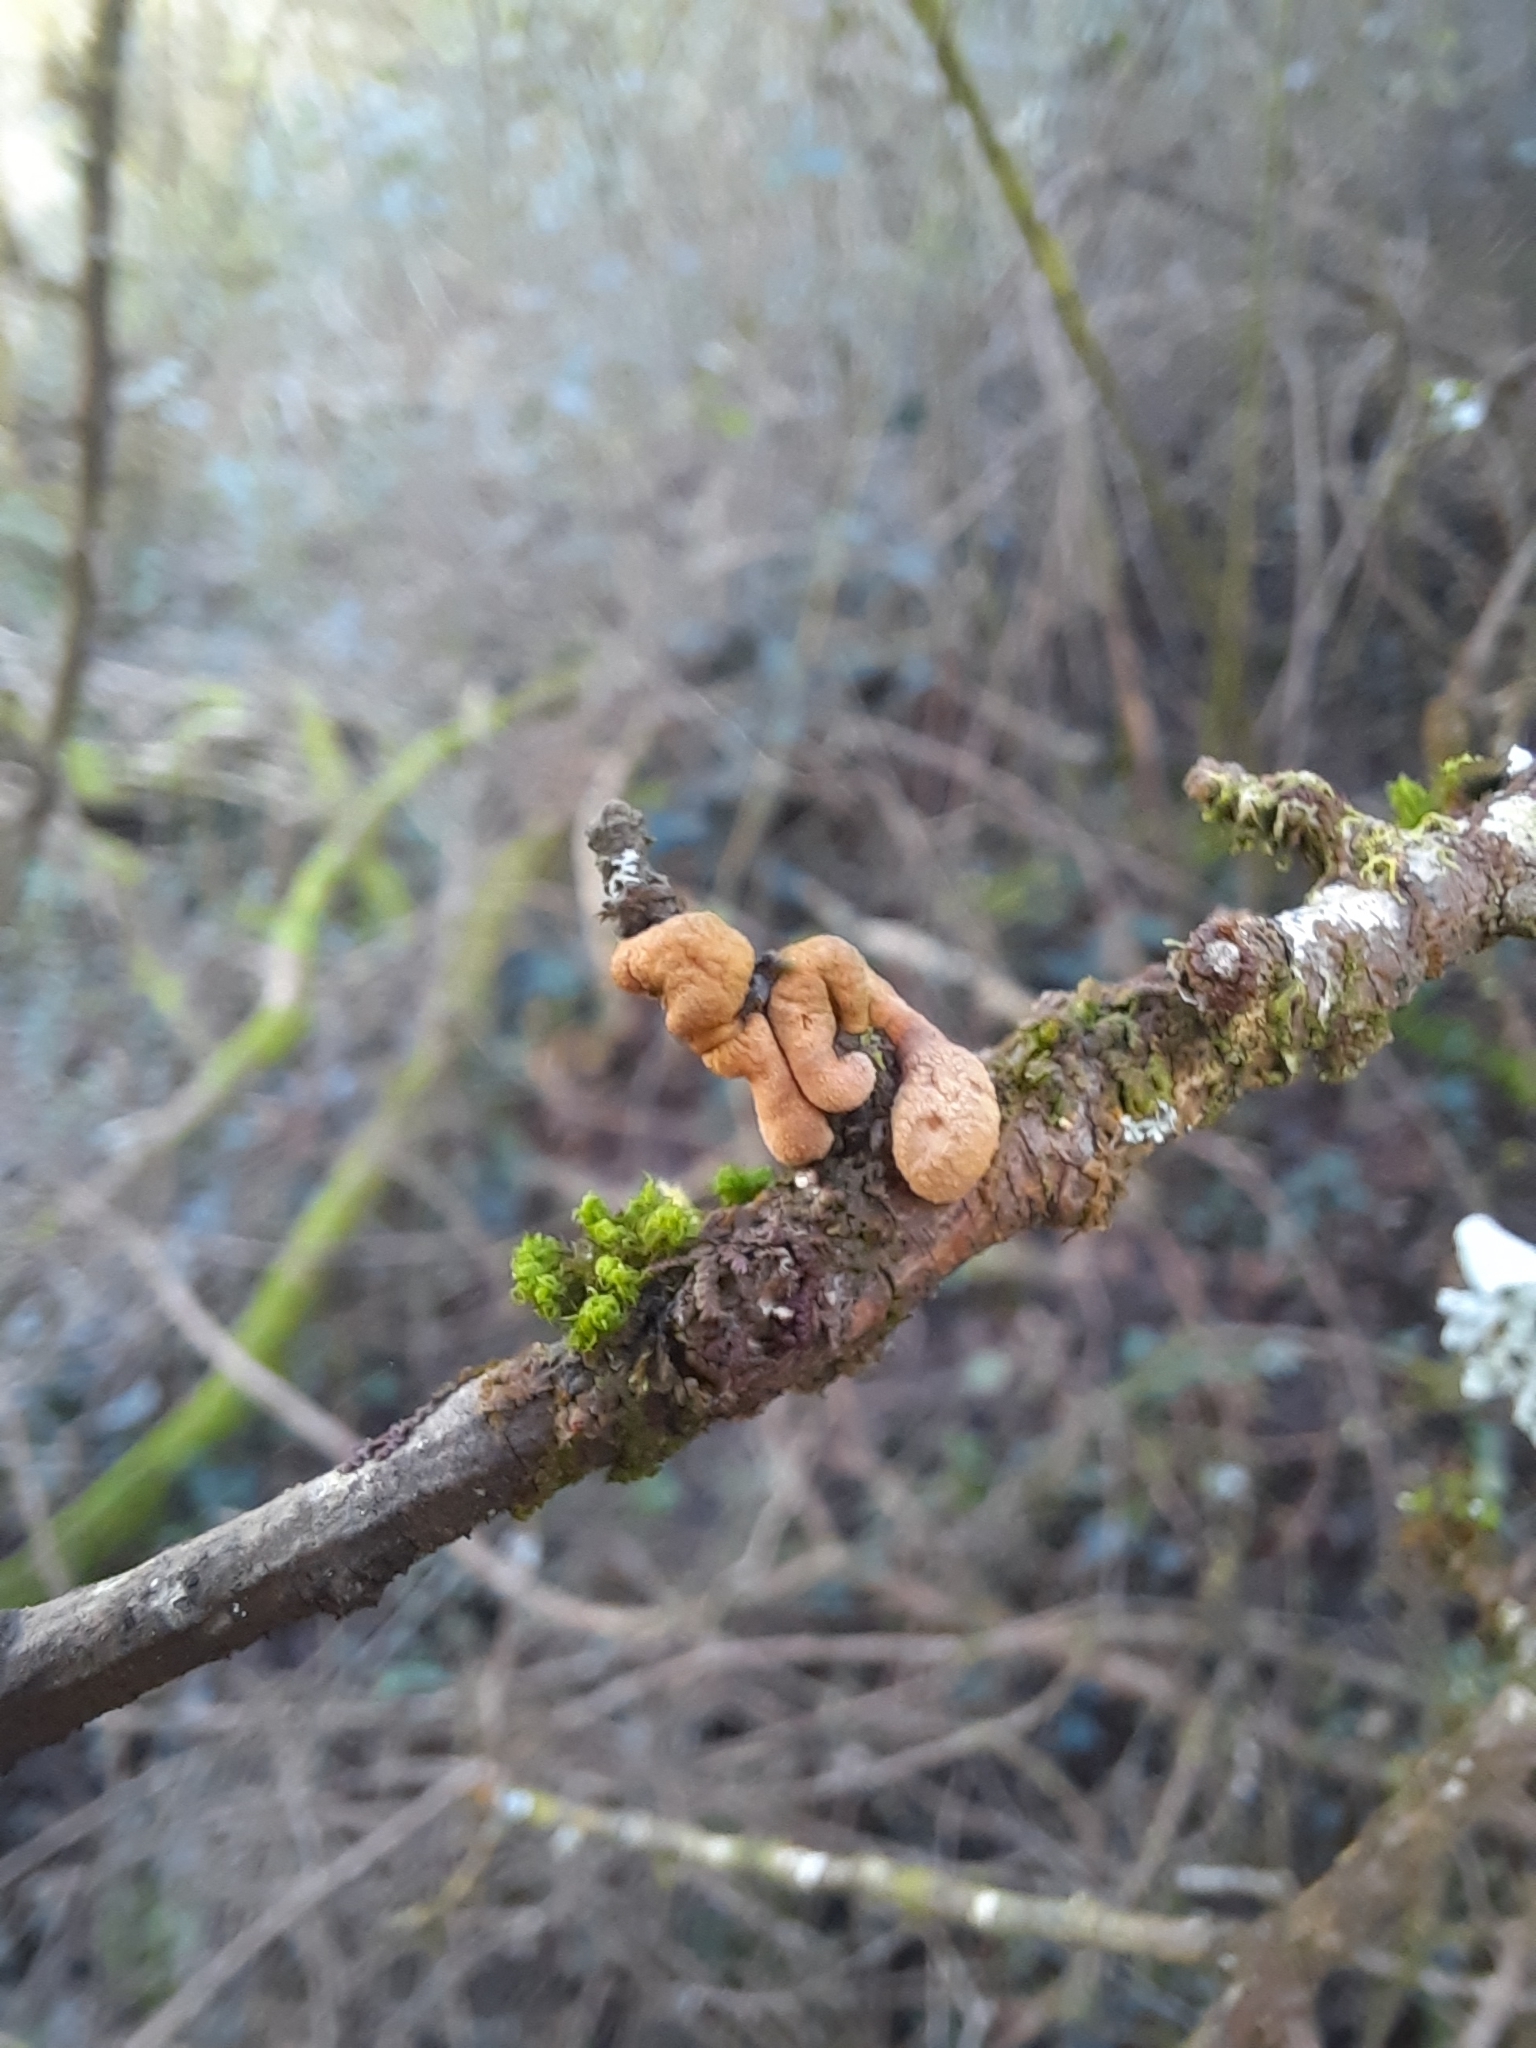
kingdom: Fungi
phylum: Ascomycota
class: Sordariomycetes
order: Hypocreales
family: Hypocreaceae
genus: Hypocreopsis
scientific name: Hypocreopsis rhododendri
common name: Hazel gloves
